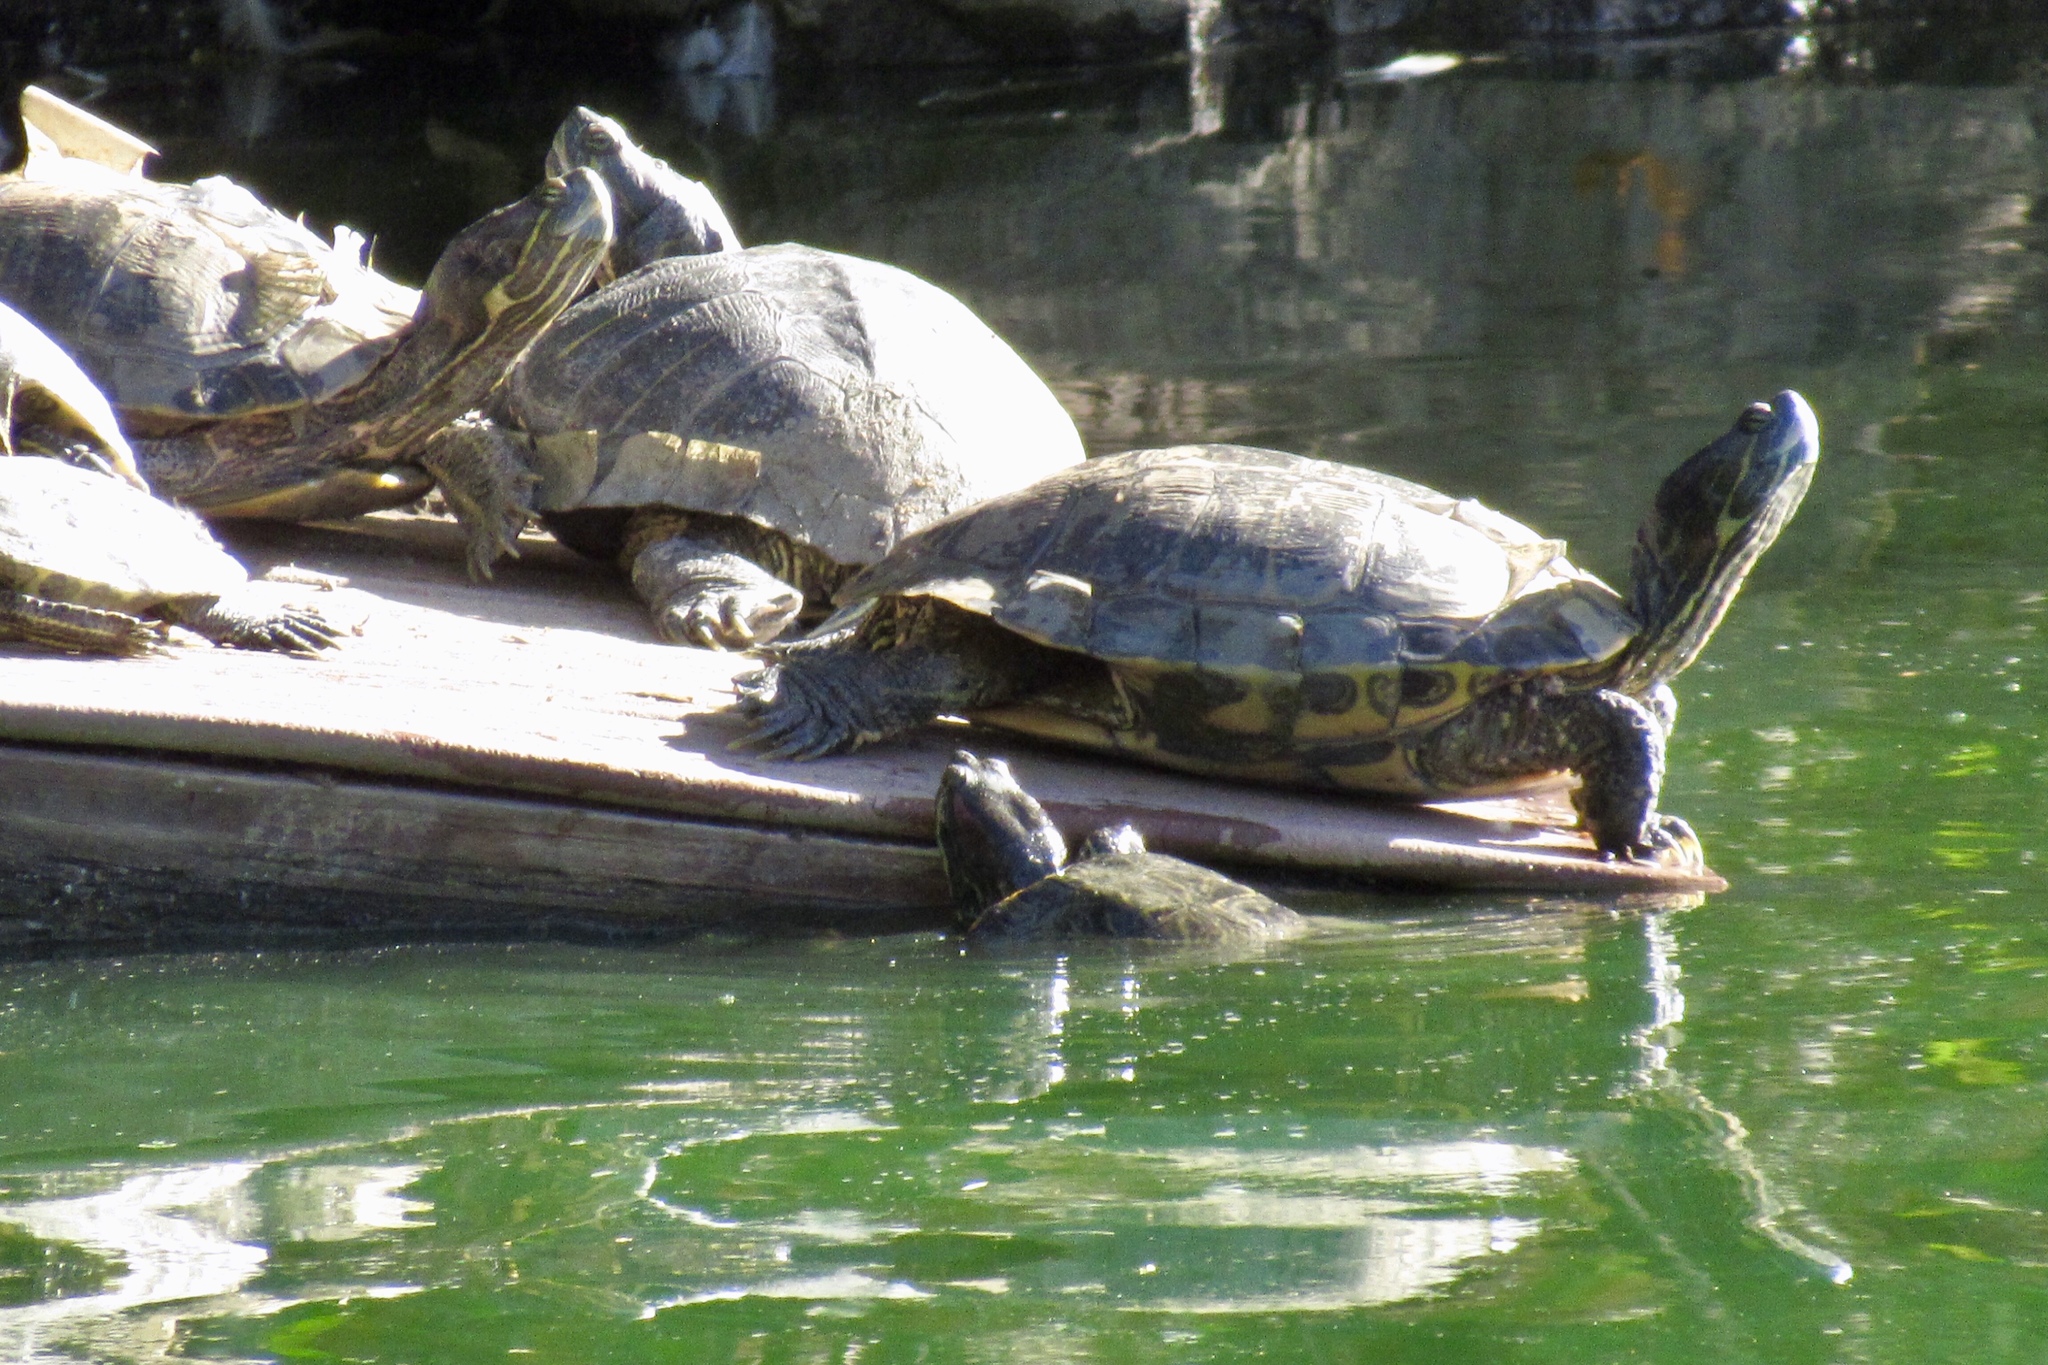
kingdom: Animalia
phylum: Chordata
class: Testudines
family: Emydidae
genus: Trachemys
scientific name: Trachemys scripta
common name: Slider
